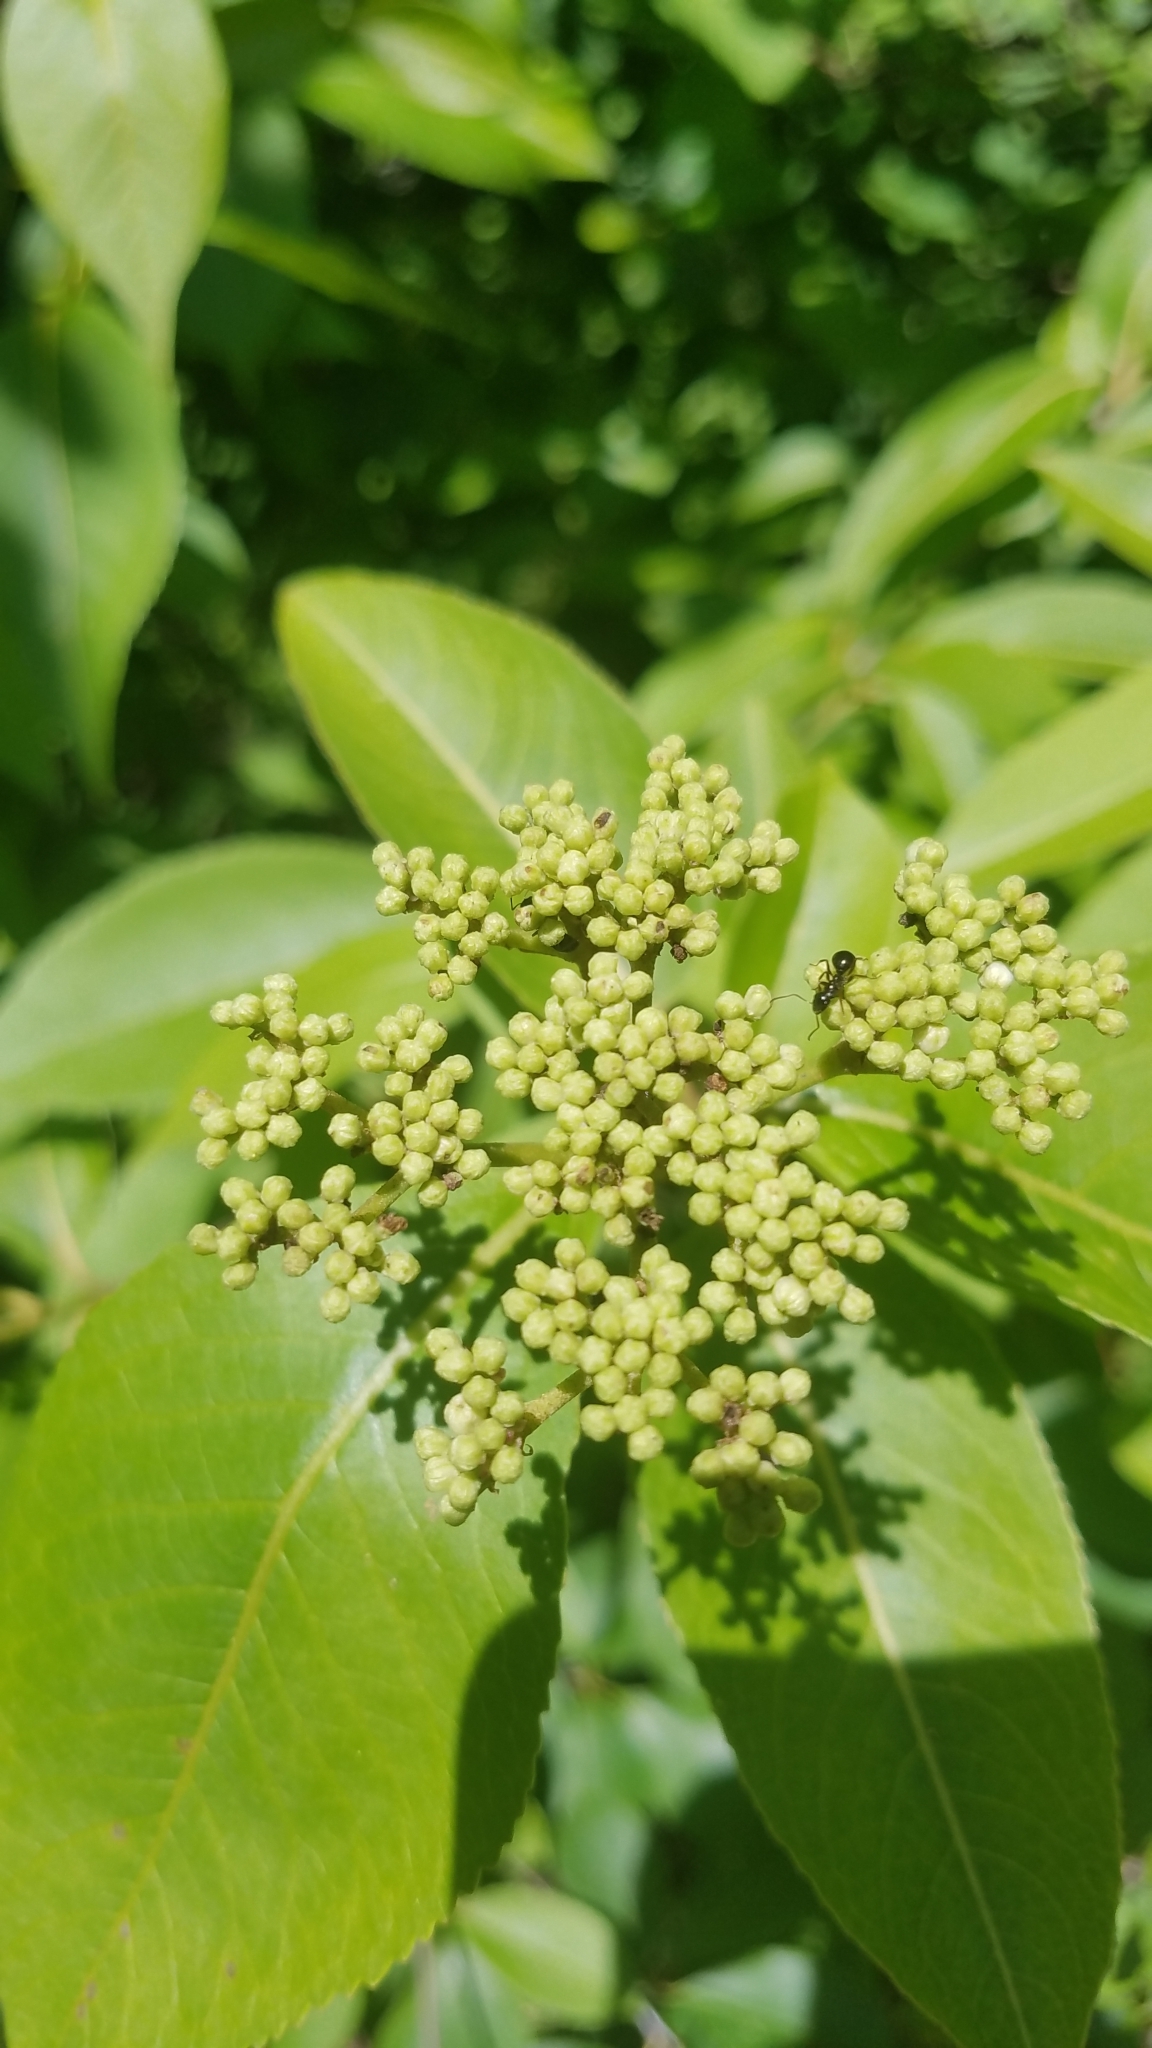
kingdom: Plantae
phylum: Tracheophyta
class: Magnoliopsida
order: Dipsacales
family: Viburnaceae
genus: Viburnum
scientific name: Viburnum cassinoides
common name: Swamp haw
